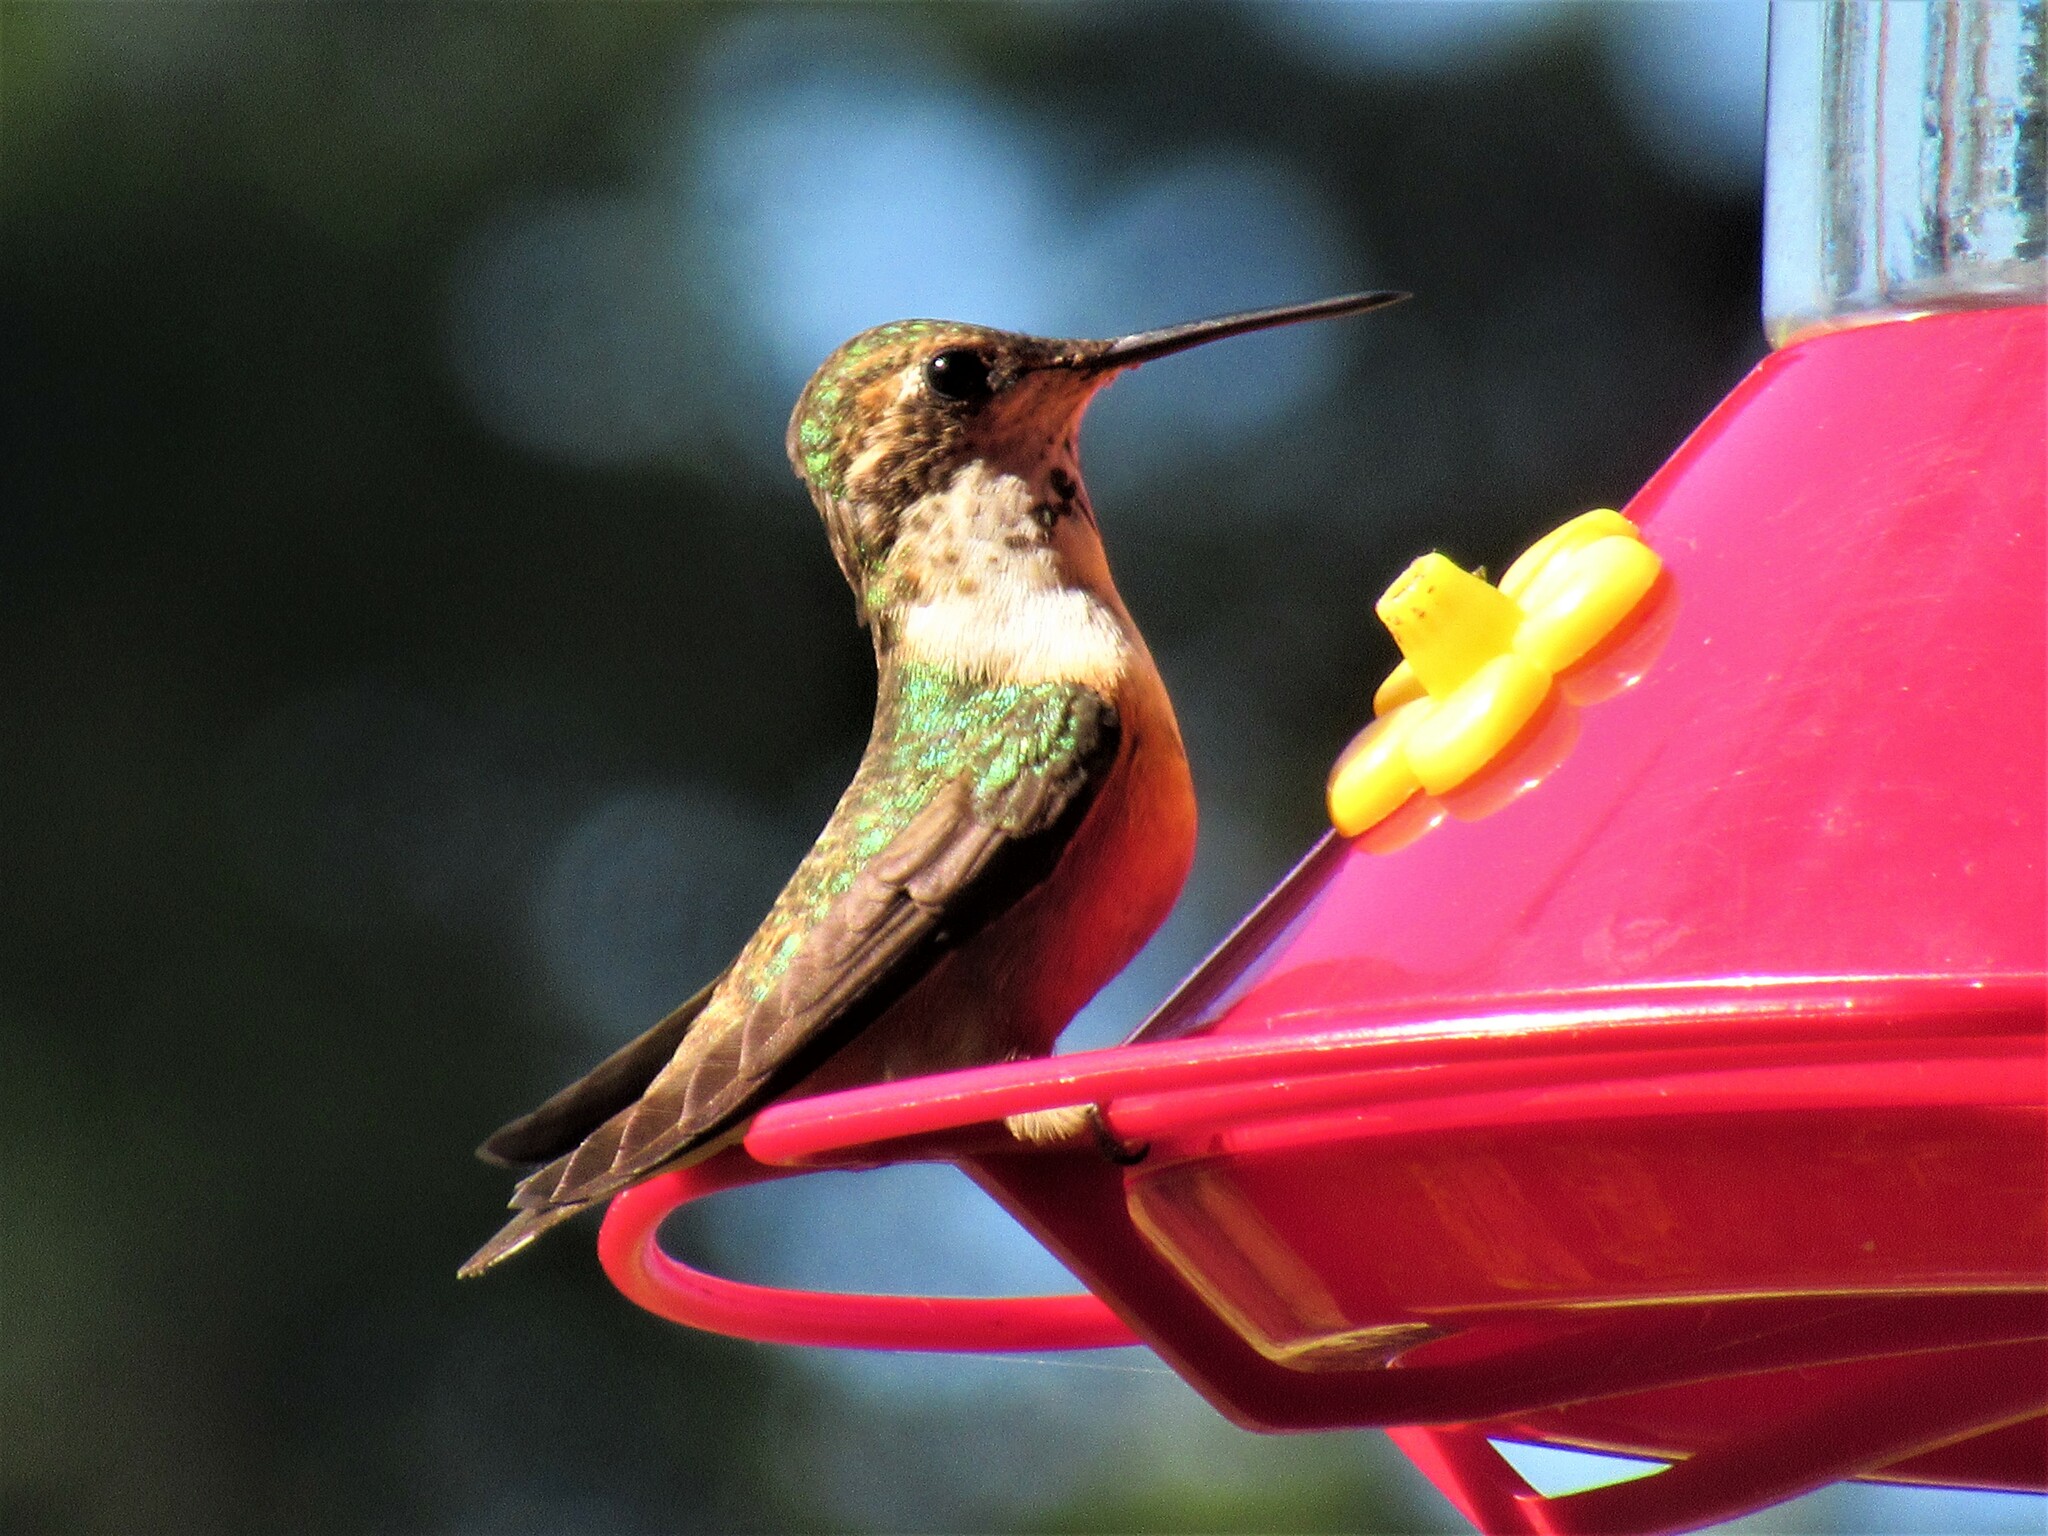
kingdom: Animalia
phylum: Chordata
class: Aves
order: Apodiformes
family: Trochilidae
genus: Selasphorus
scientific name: Selasphorus rufus
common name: Rufous hummingbird
